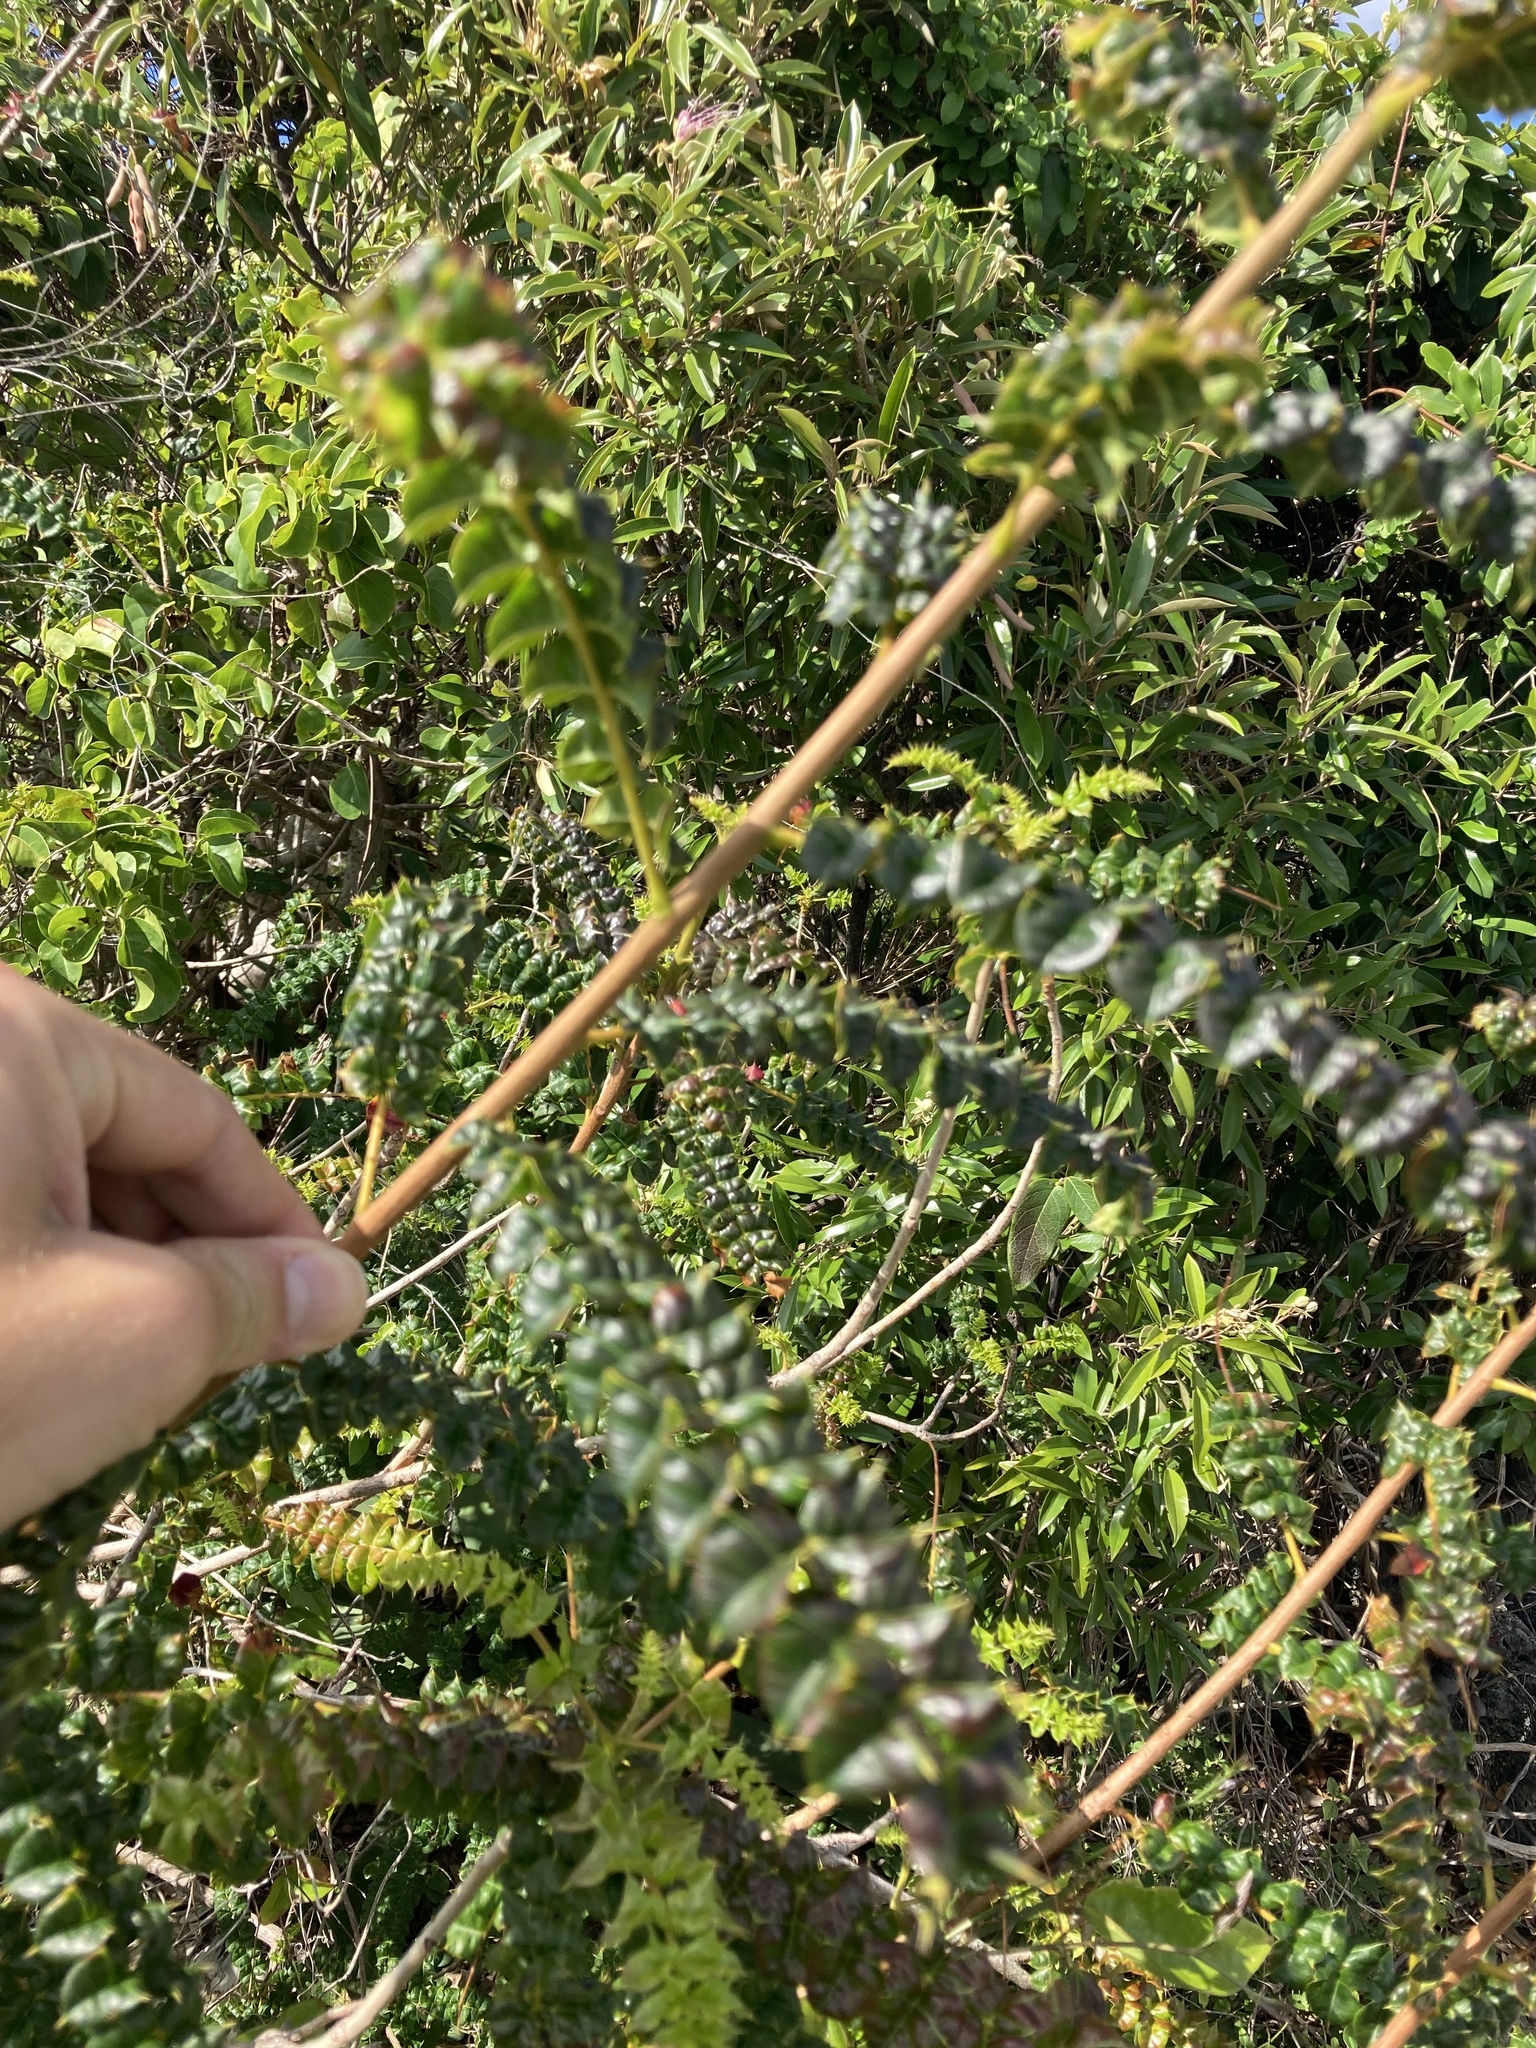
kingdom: Plantae
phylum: Tracheophyta
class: Magnoliopsida
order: Sapindales
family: Anacardiaceae
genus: Comocladia
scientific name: Comocladia dodonaea
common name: Poison ash
